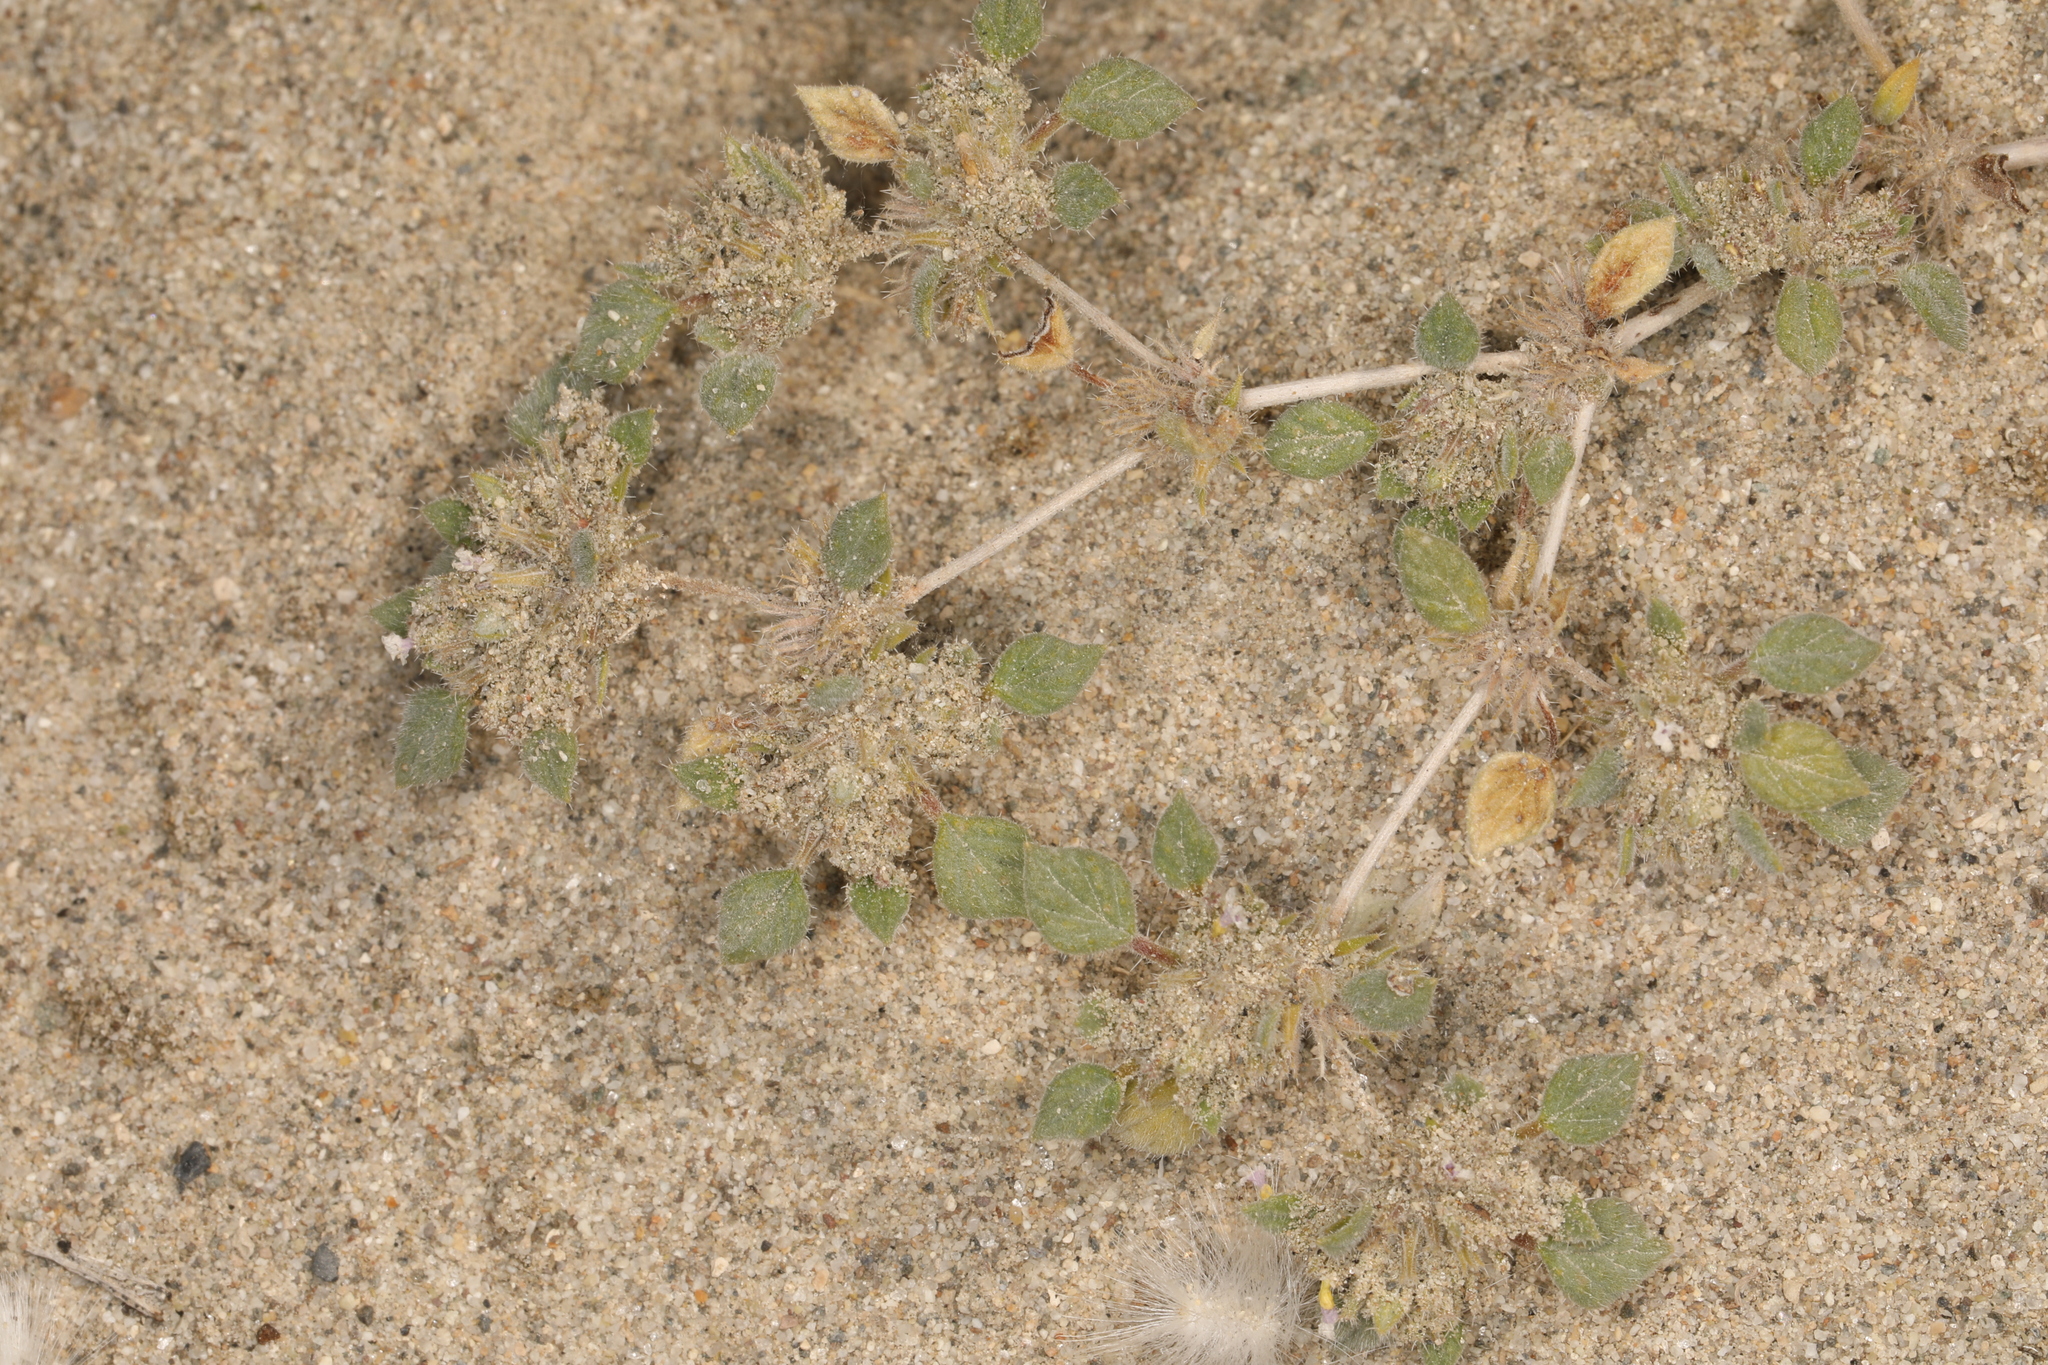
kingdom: Plantae
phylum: Tracheophyta
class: Magnoliopsida
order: Boraginales
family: Ehretiaceae
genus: Tiquilia
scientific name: Tiquilia nuttallii
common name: Rosette tiquilia
